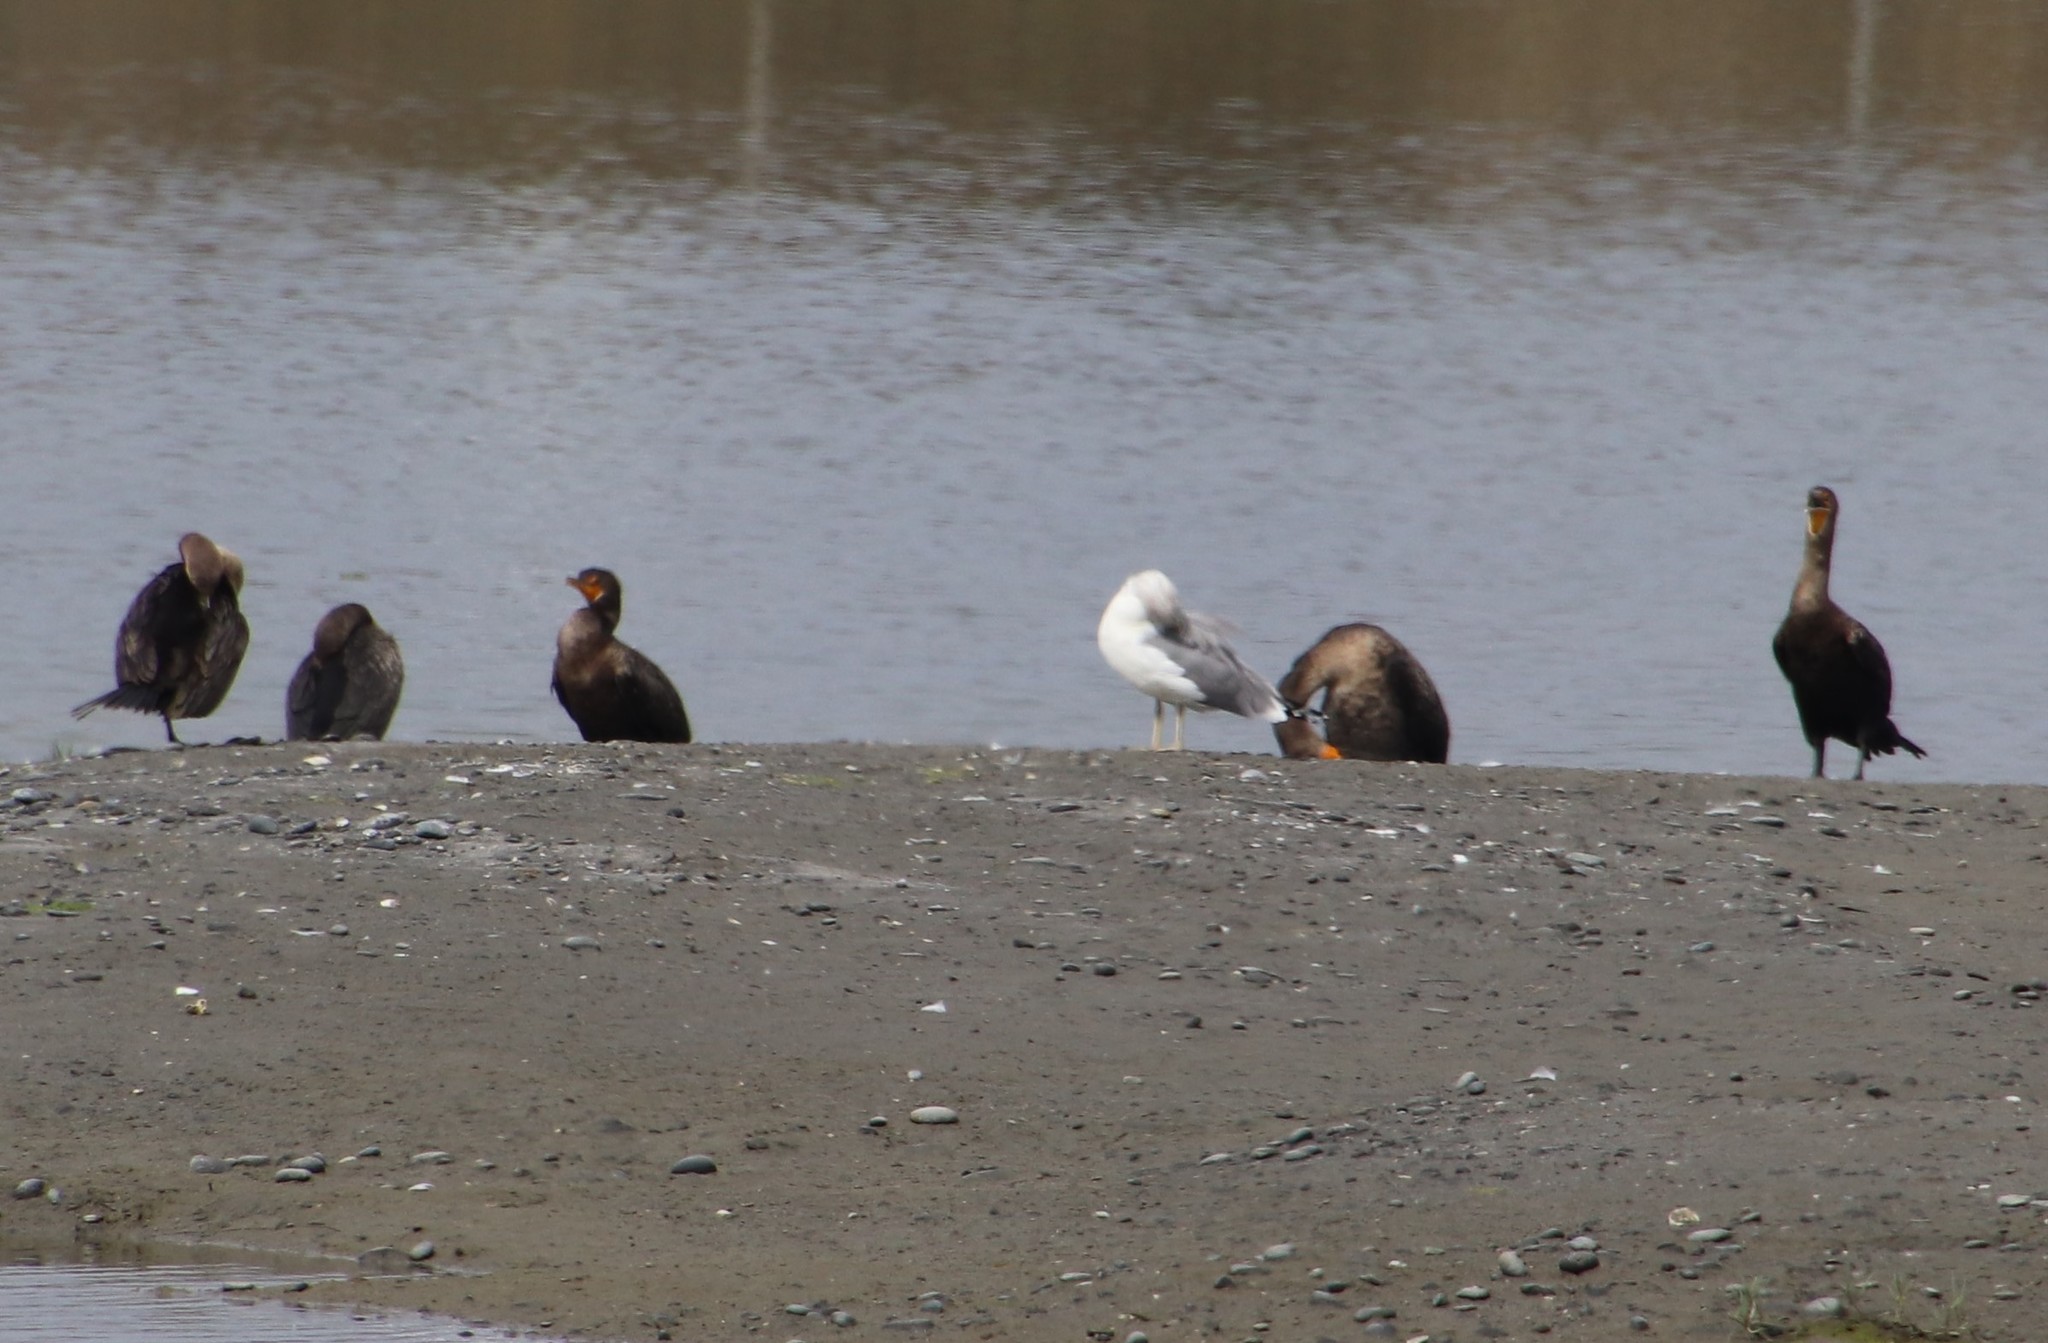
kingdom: Animalia
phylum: Chordata
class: Aves
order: Suliformes
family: Phalacrocoracidae
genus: Phalacrocorax
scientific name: Phalacrocorax auritus
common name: Double-crested cormorant
